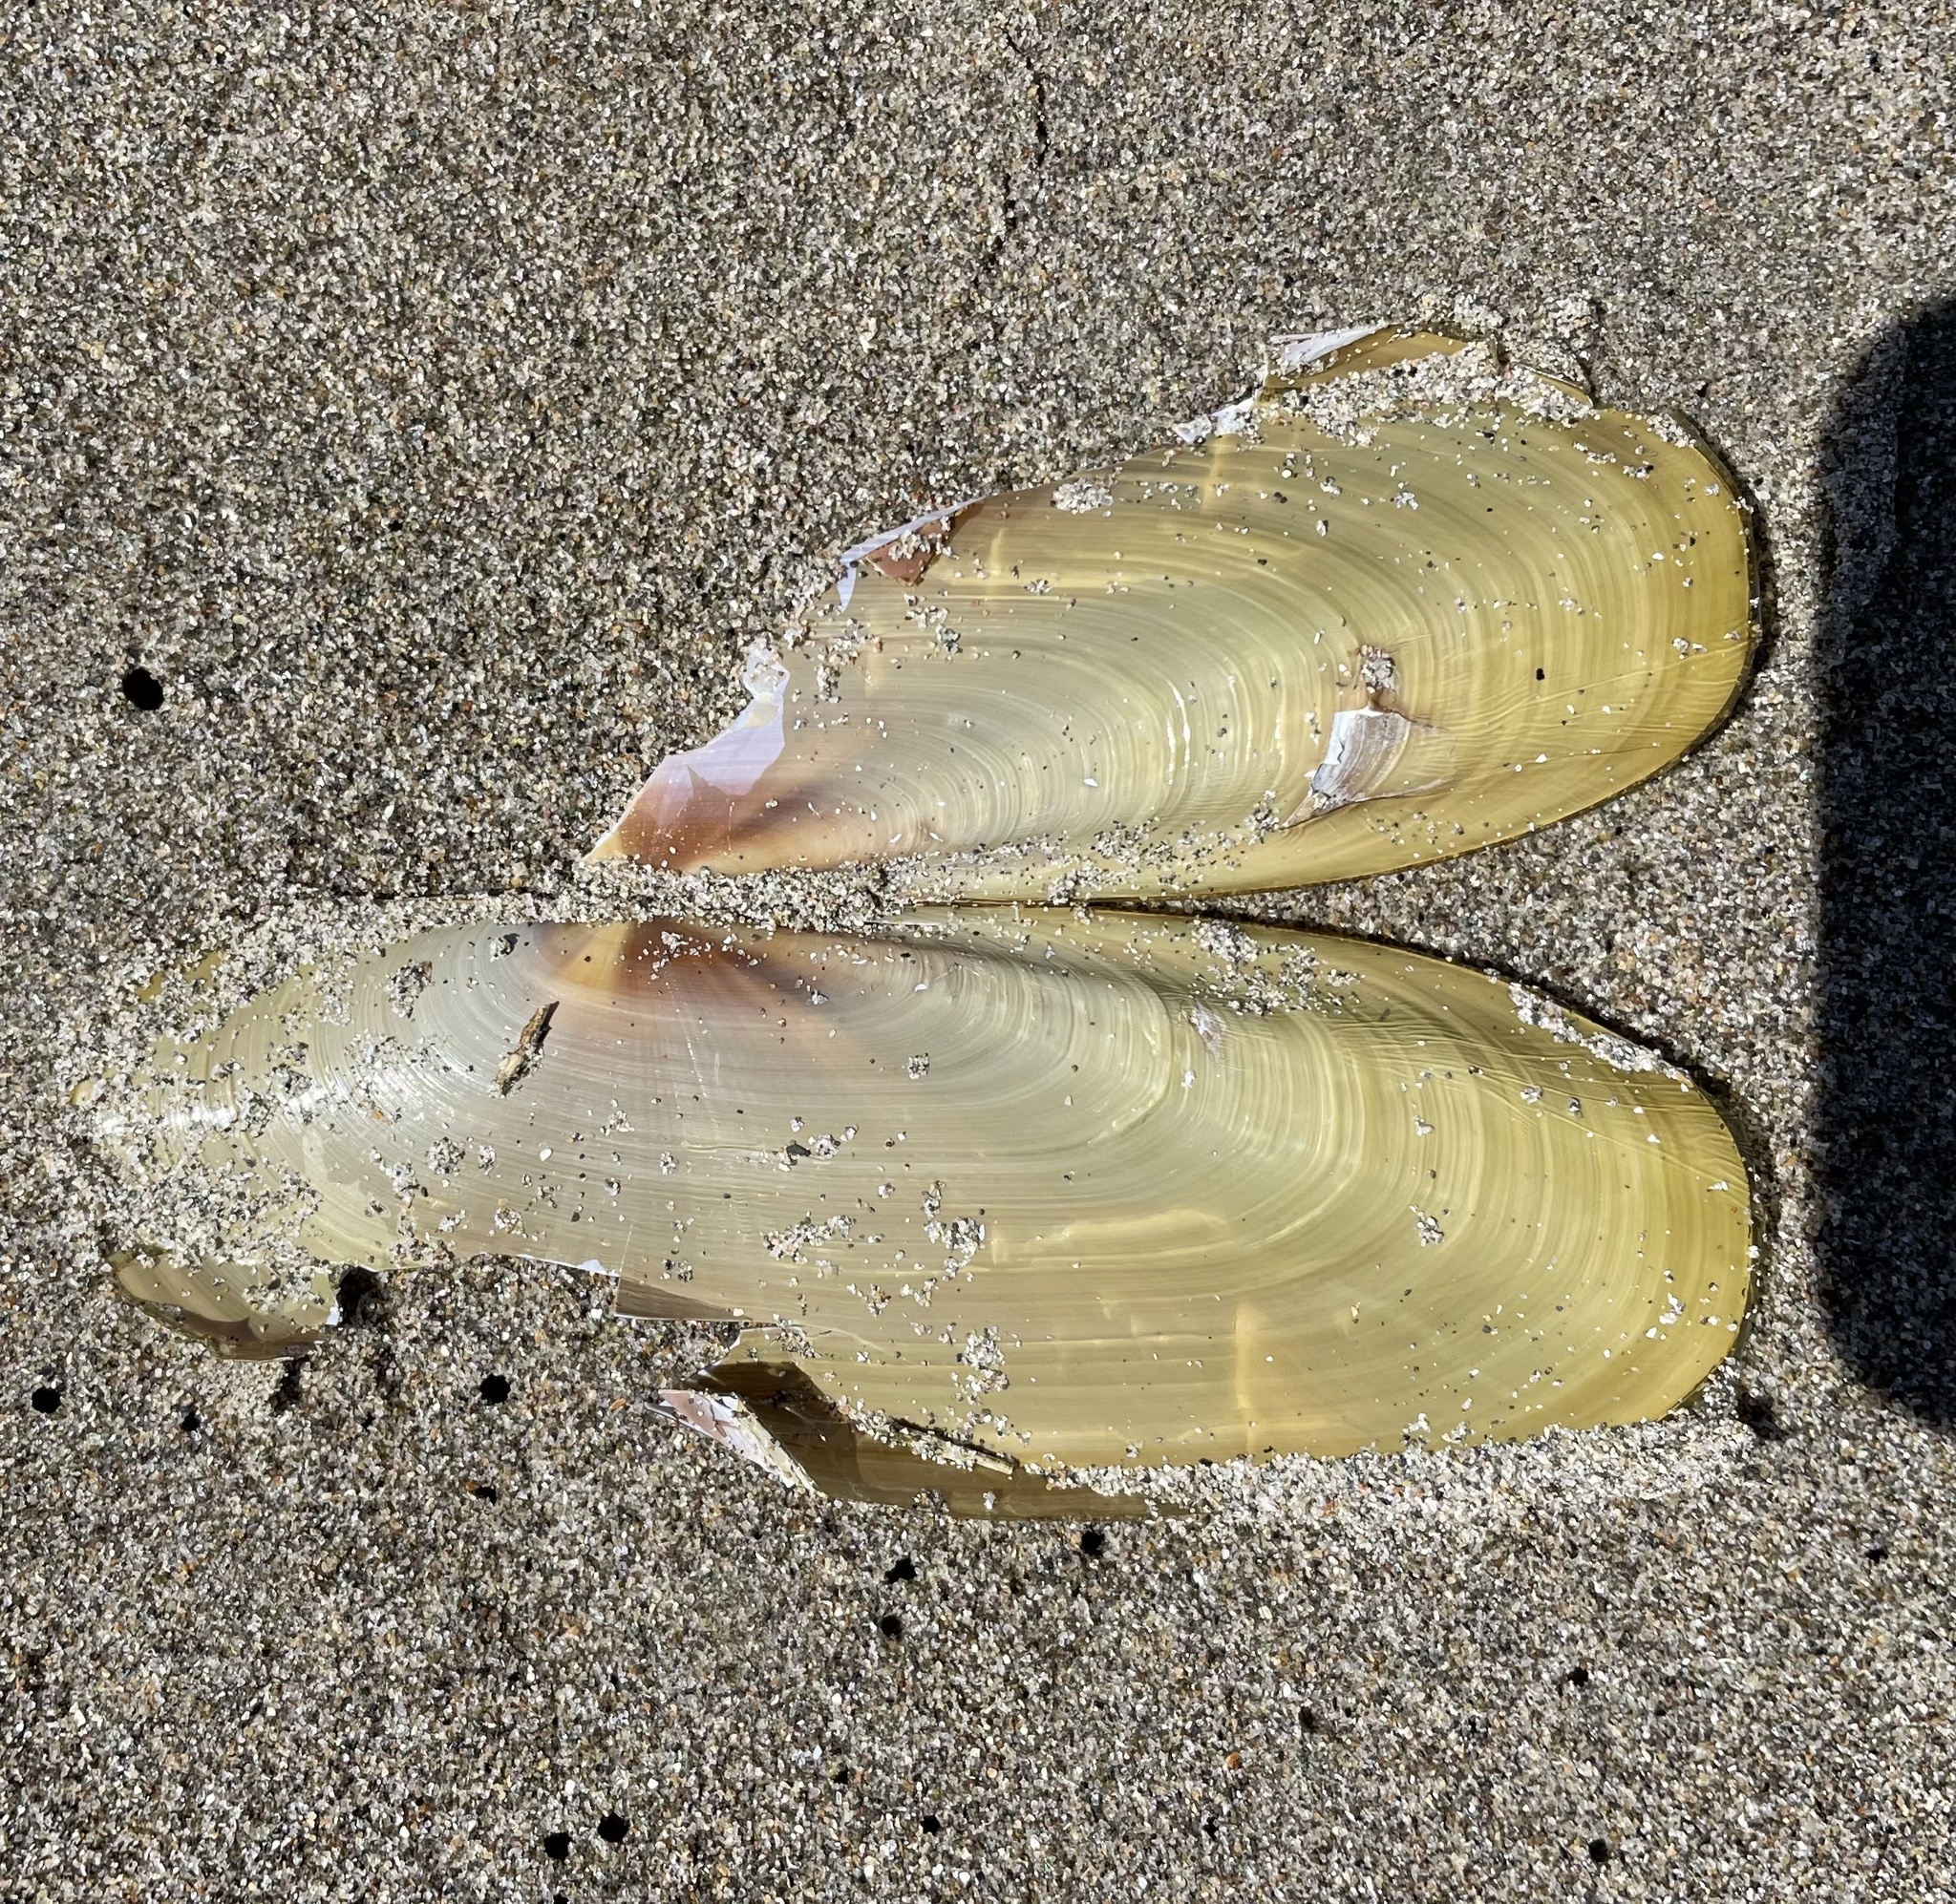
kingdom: Animalia
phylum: Mollusca
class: Bivalvia
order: Adapedonta
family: Pharidae
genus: Siliqua
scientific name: Siliqua patula
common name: Pacific razor clam
